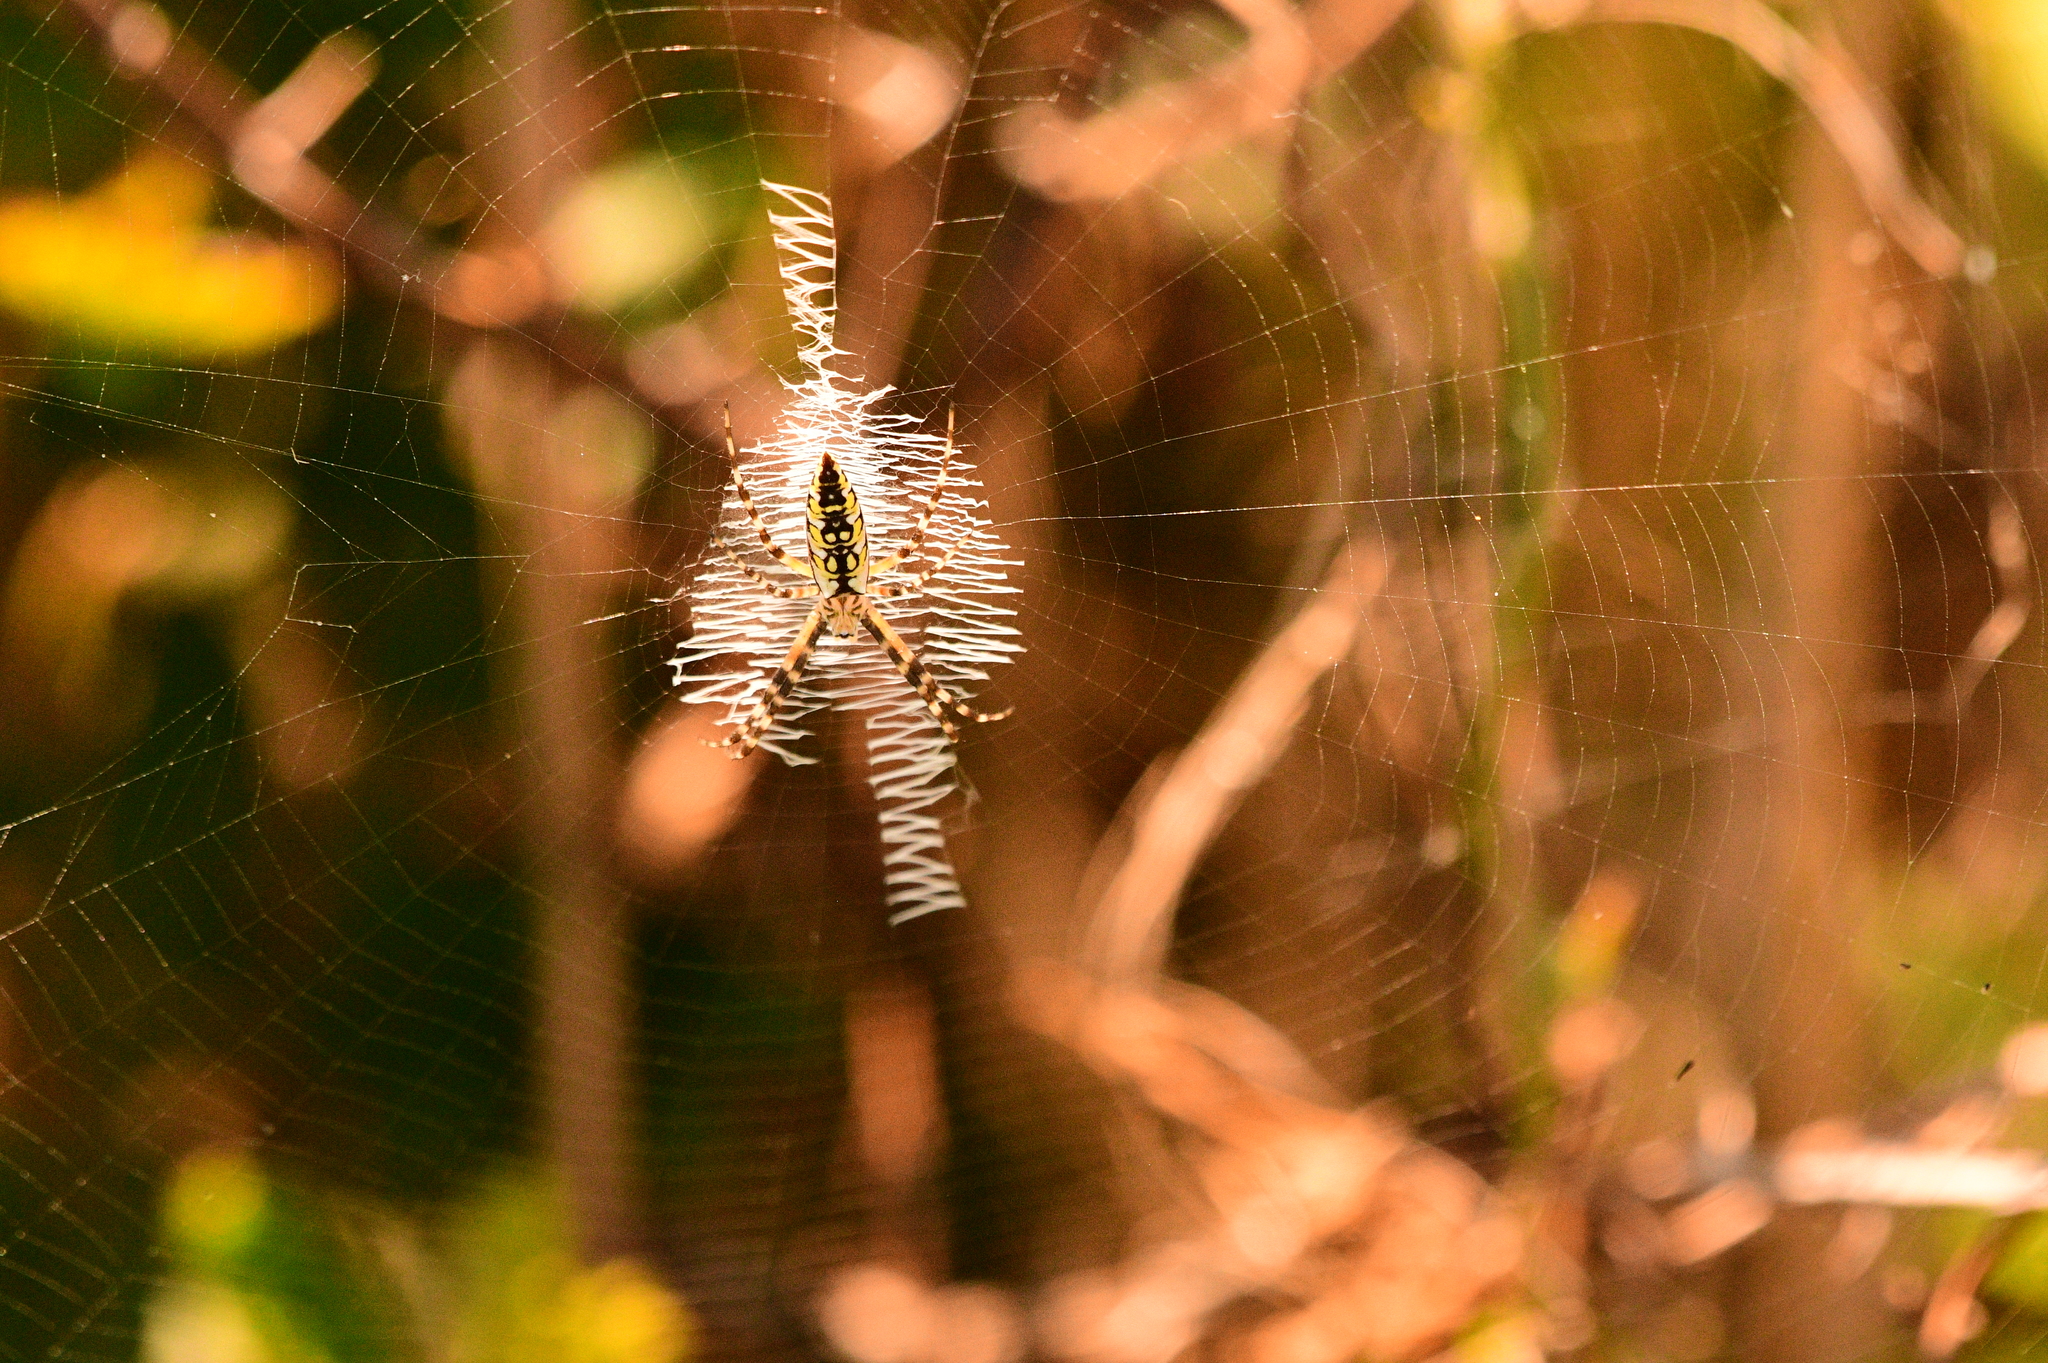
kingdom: Animalia
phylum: Arthropoda
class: Arachnida
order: Araneae
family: Araneidae
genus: Argiope
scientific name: Argiope aurantia
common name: Orb weavers
